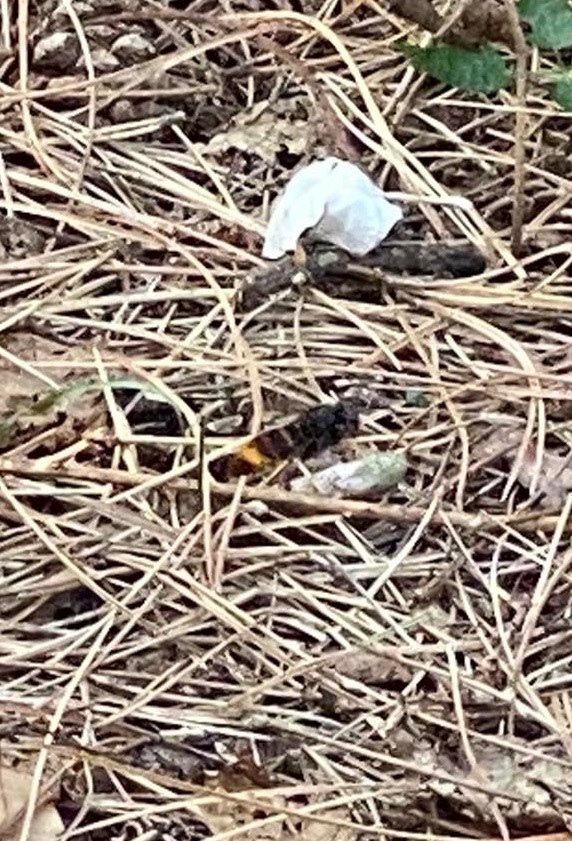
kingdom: Animalia
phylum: Arthropoda
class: Insecta
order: Hymenoptera
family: Vespidae
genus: Vespa
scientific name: Vespa velutina
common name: Asian hornet
